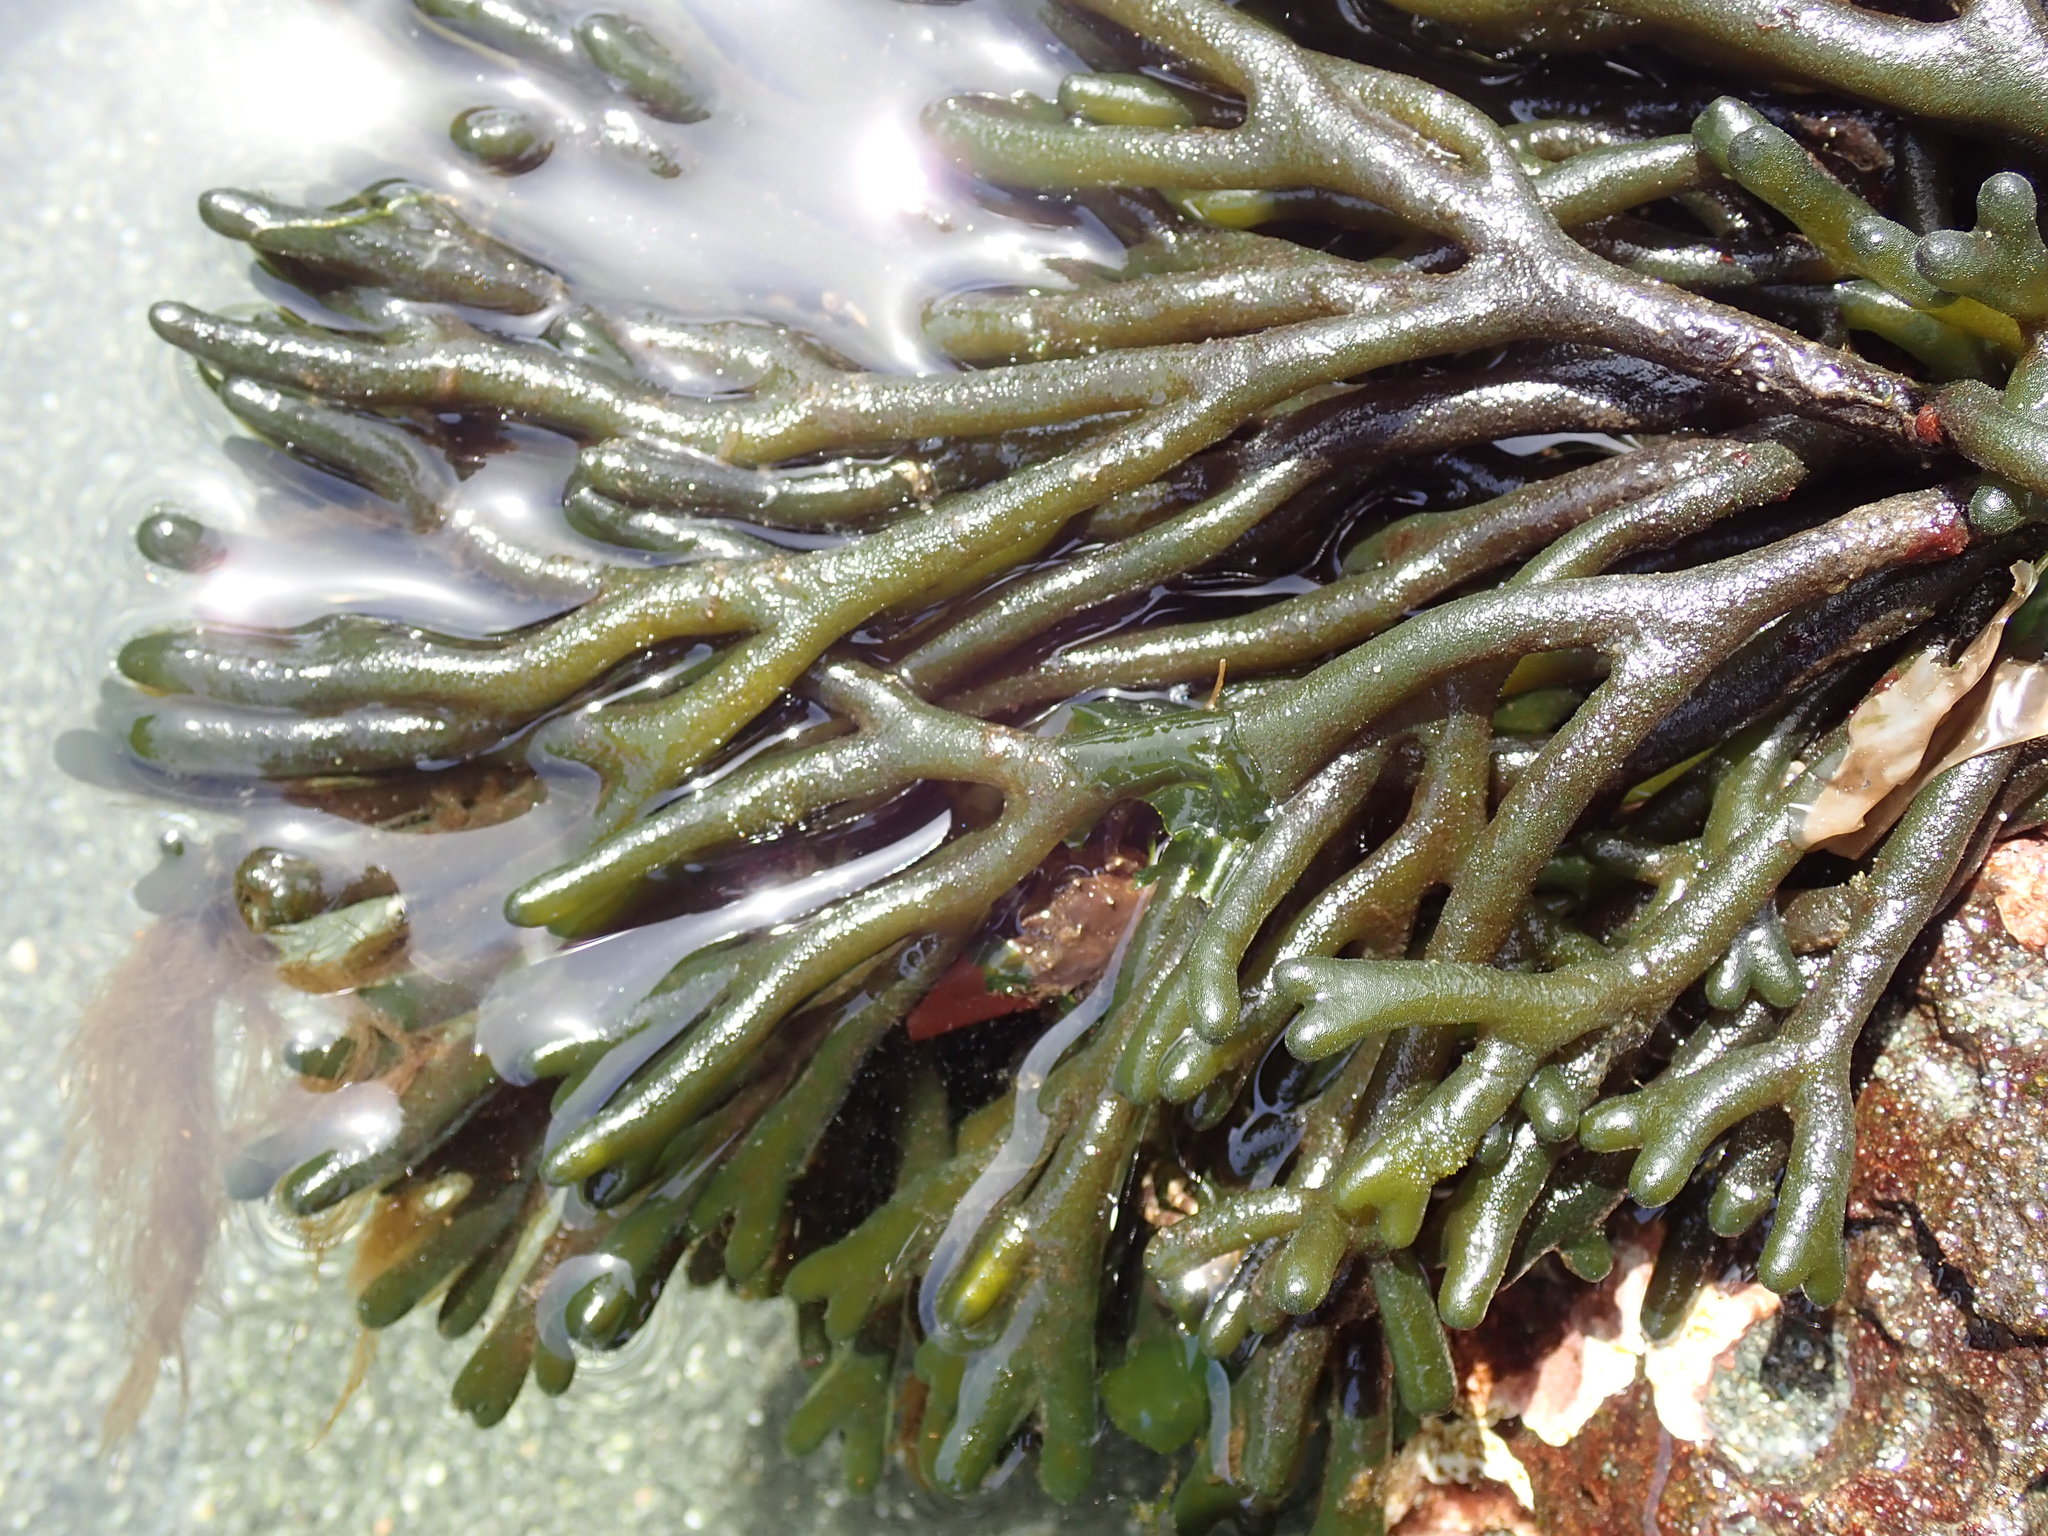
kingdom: Plantae
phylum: Chlorophyta
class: Ulvophyceae
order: Bryopsidales
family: Codiaceae
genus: Codium
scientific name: Codium fragile
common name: Dead man's fingers
